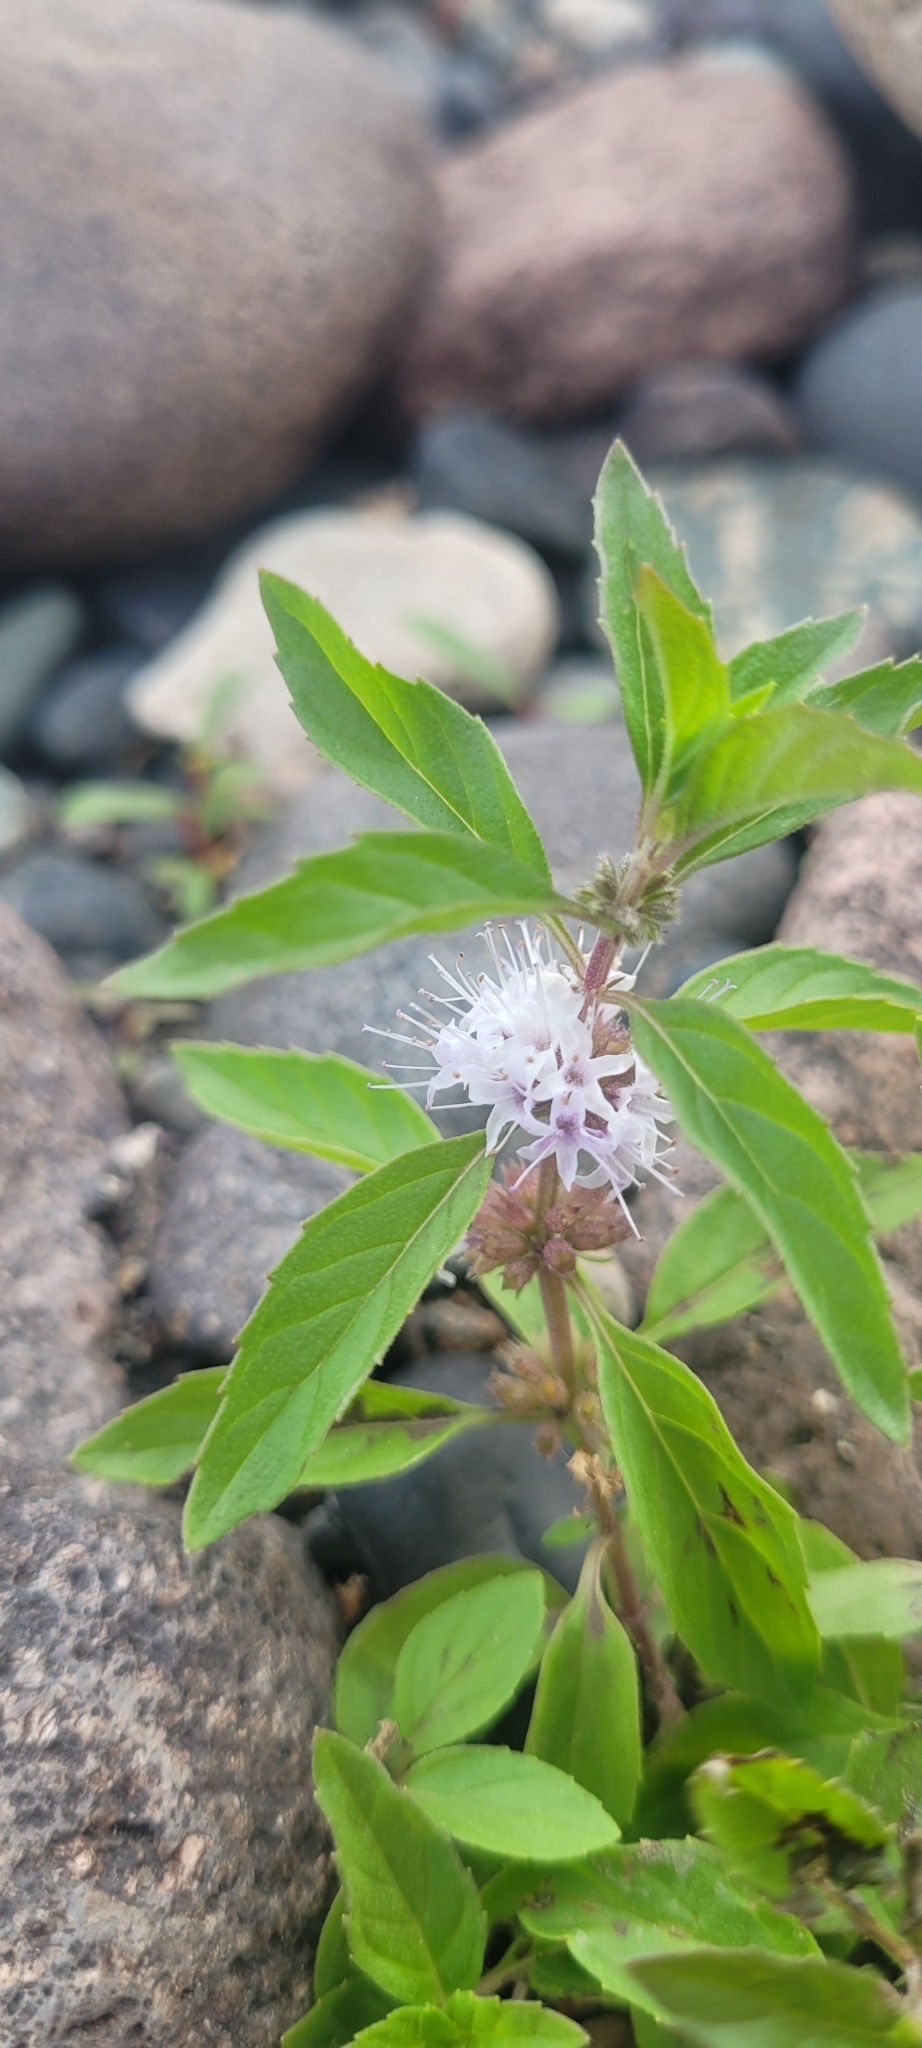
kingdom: Plantae
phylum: Tracheophyta
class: Magnoliopsida
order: Lamiales
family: Lamiaceae
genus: Mentha
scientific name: Mentha canadensis
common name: American corn mint
